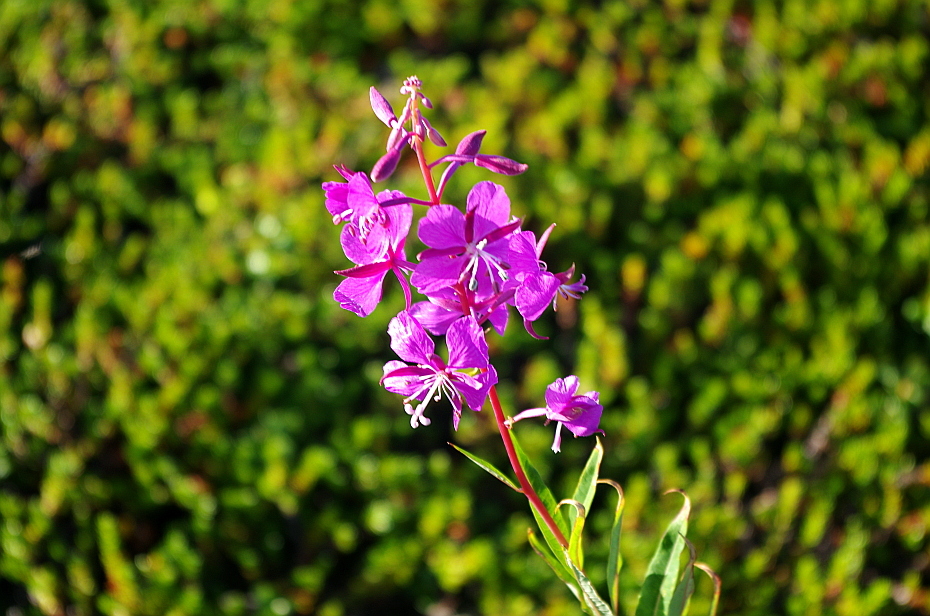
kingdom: Plantae
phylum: Tracheophyta
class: Magnoliopsida
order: Myrtales
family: Onagraceae
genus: Chamaenerion
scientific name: Chamaenerion angustifolium
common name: Fireweed
